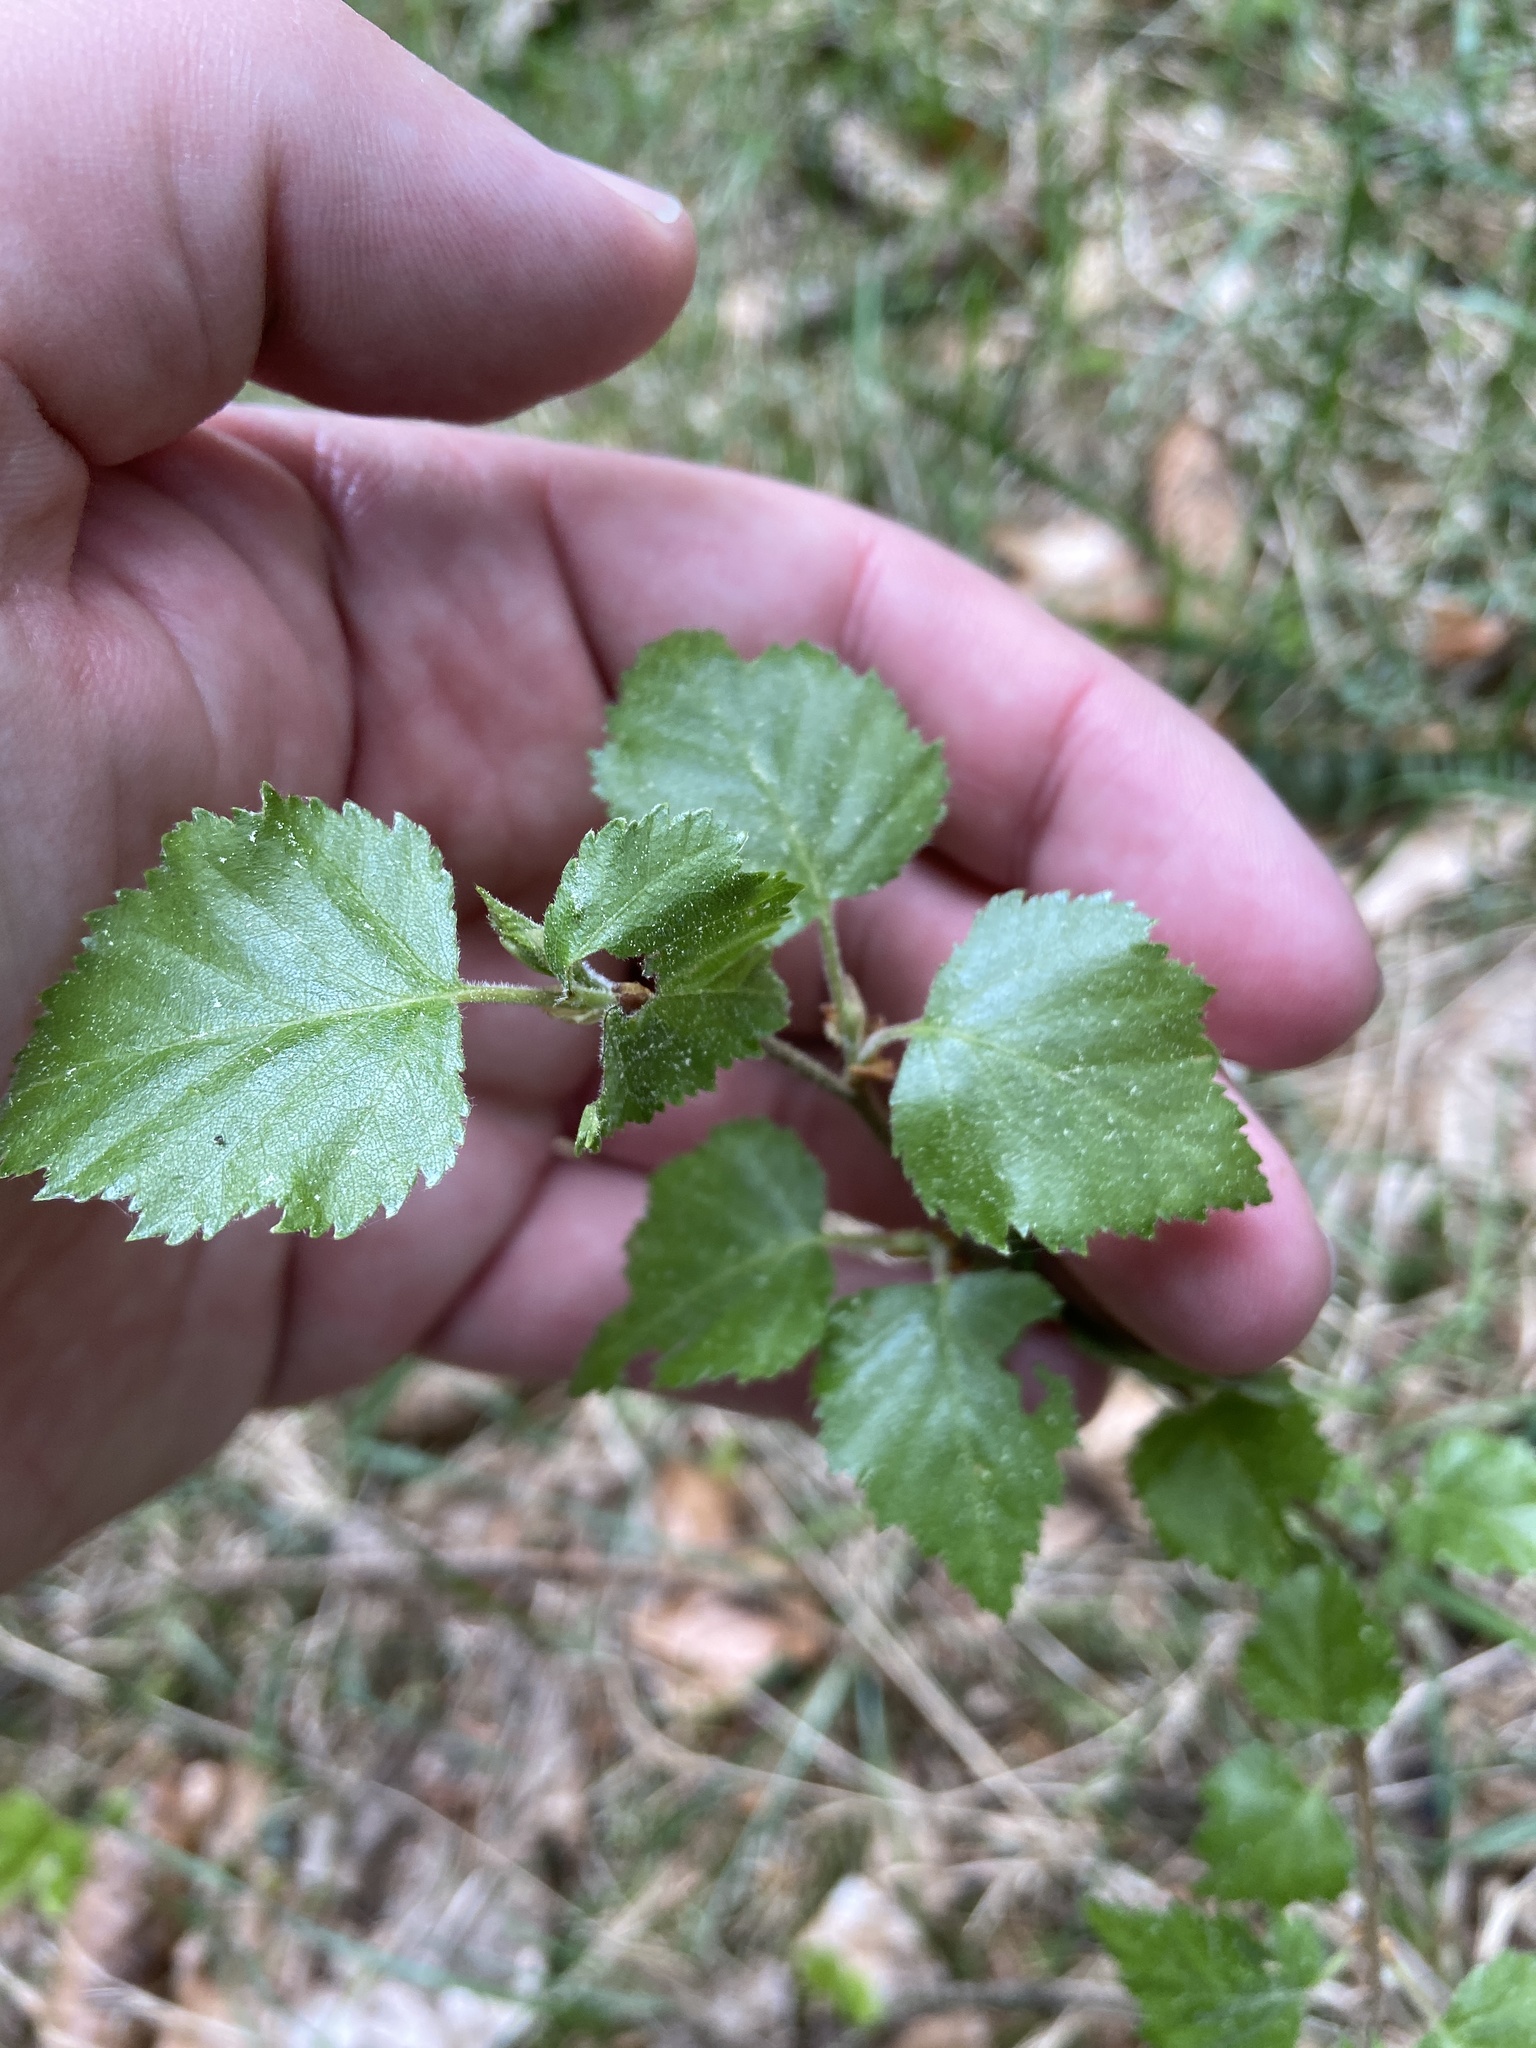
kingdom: Plantae
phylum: Tracheophyta
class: Magnoliopsida
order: Fagales
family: Betulaceae
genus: Betula
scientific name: Betula pendula
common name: Silver birch
